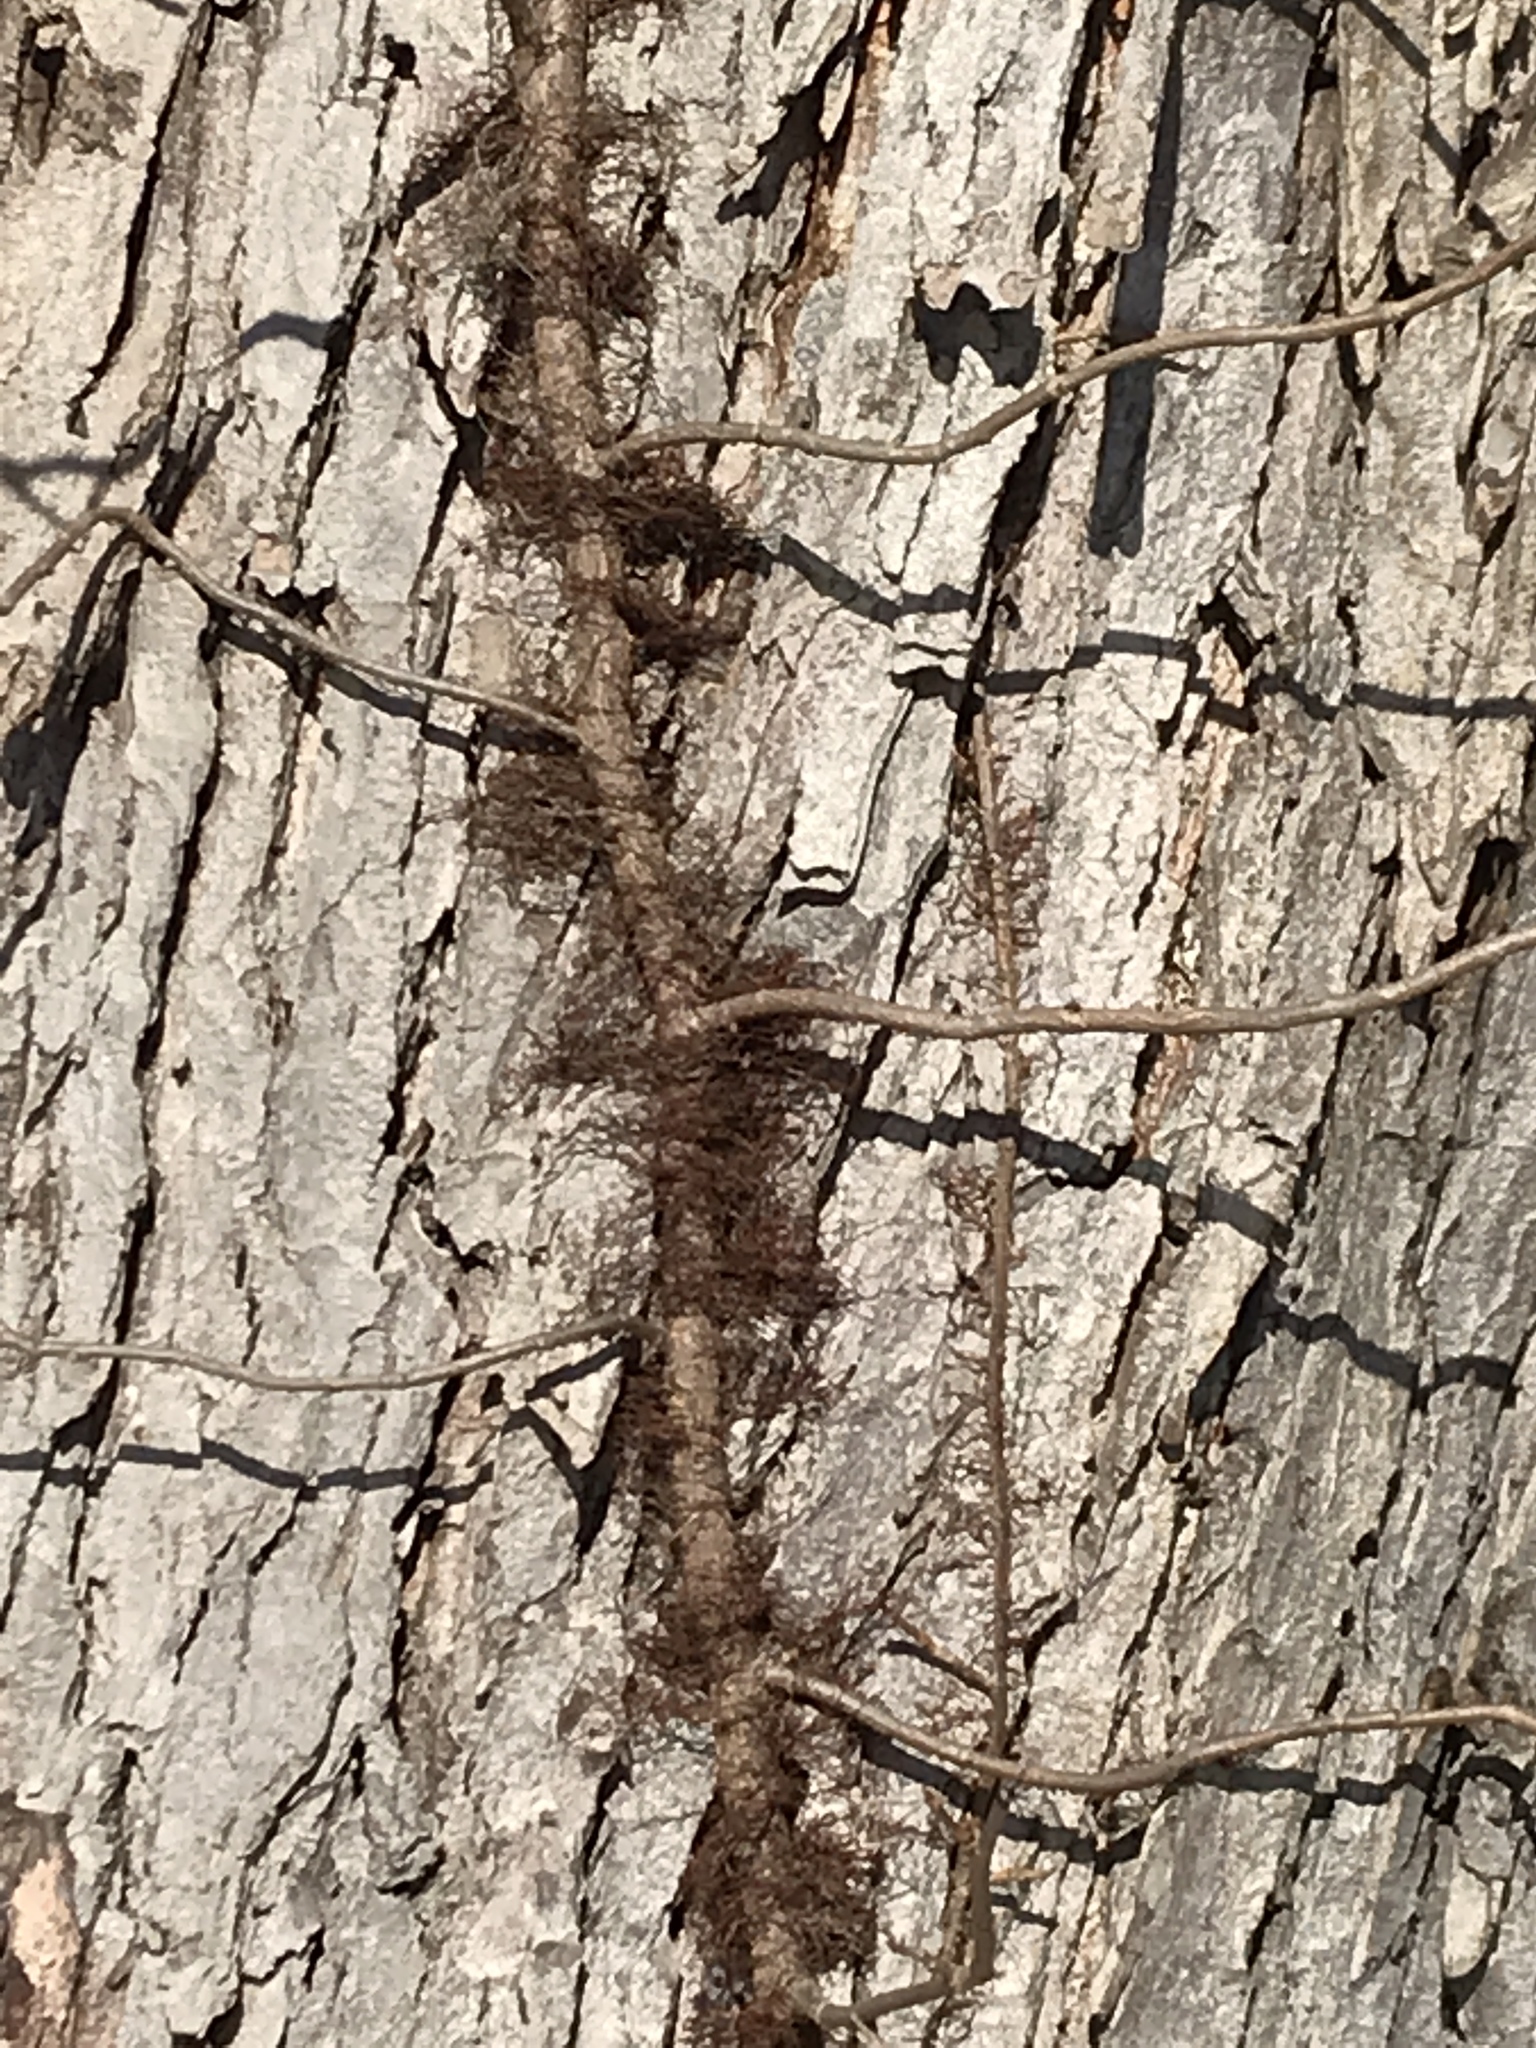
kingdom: Plantae
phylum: Tracheophyta
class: Magnoliopsida
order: Sapindales
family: Anacardiaceae
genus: Toxicodendron
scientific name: Toxicodendron radicans
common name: Poison ivy
